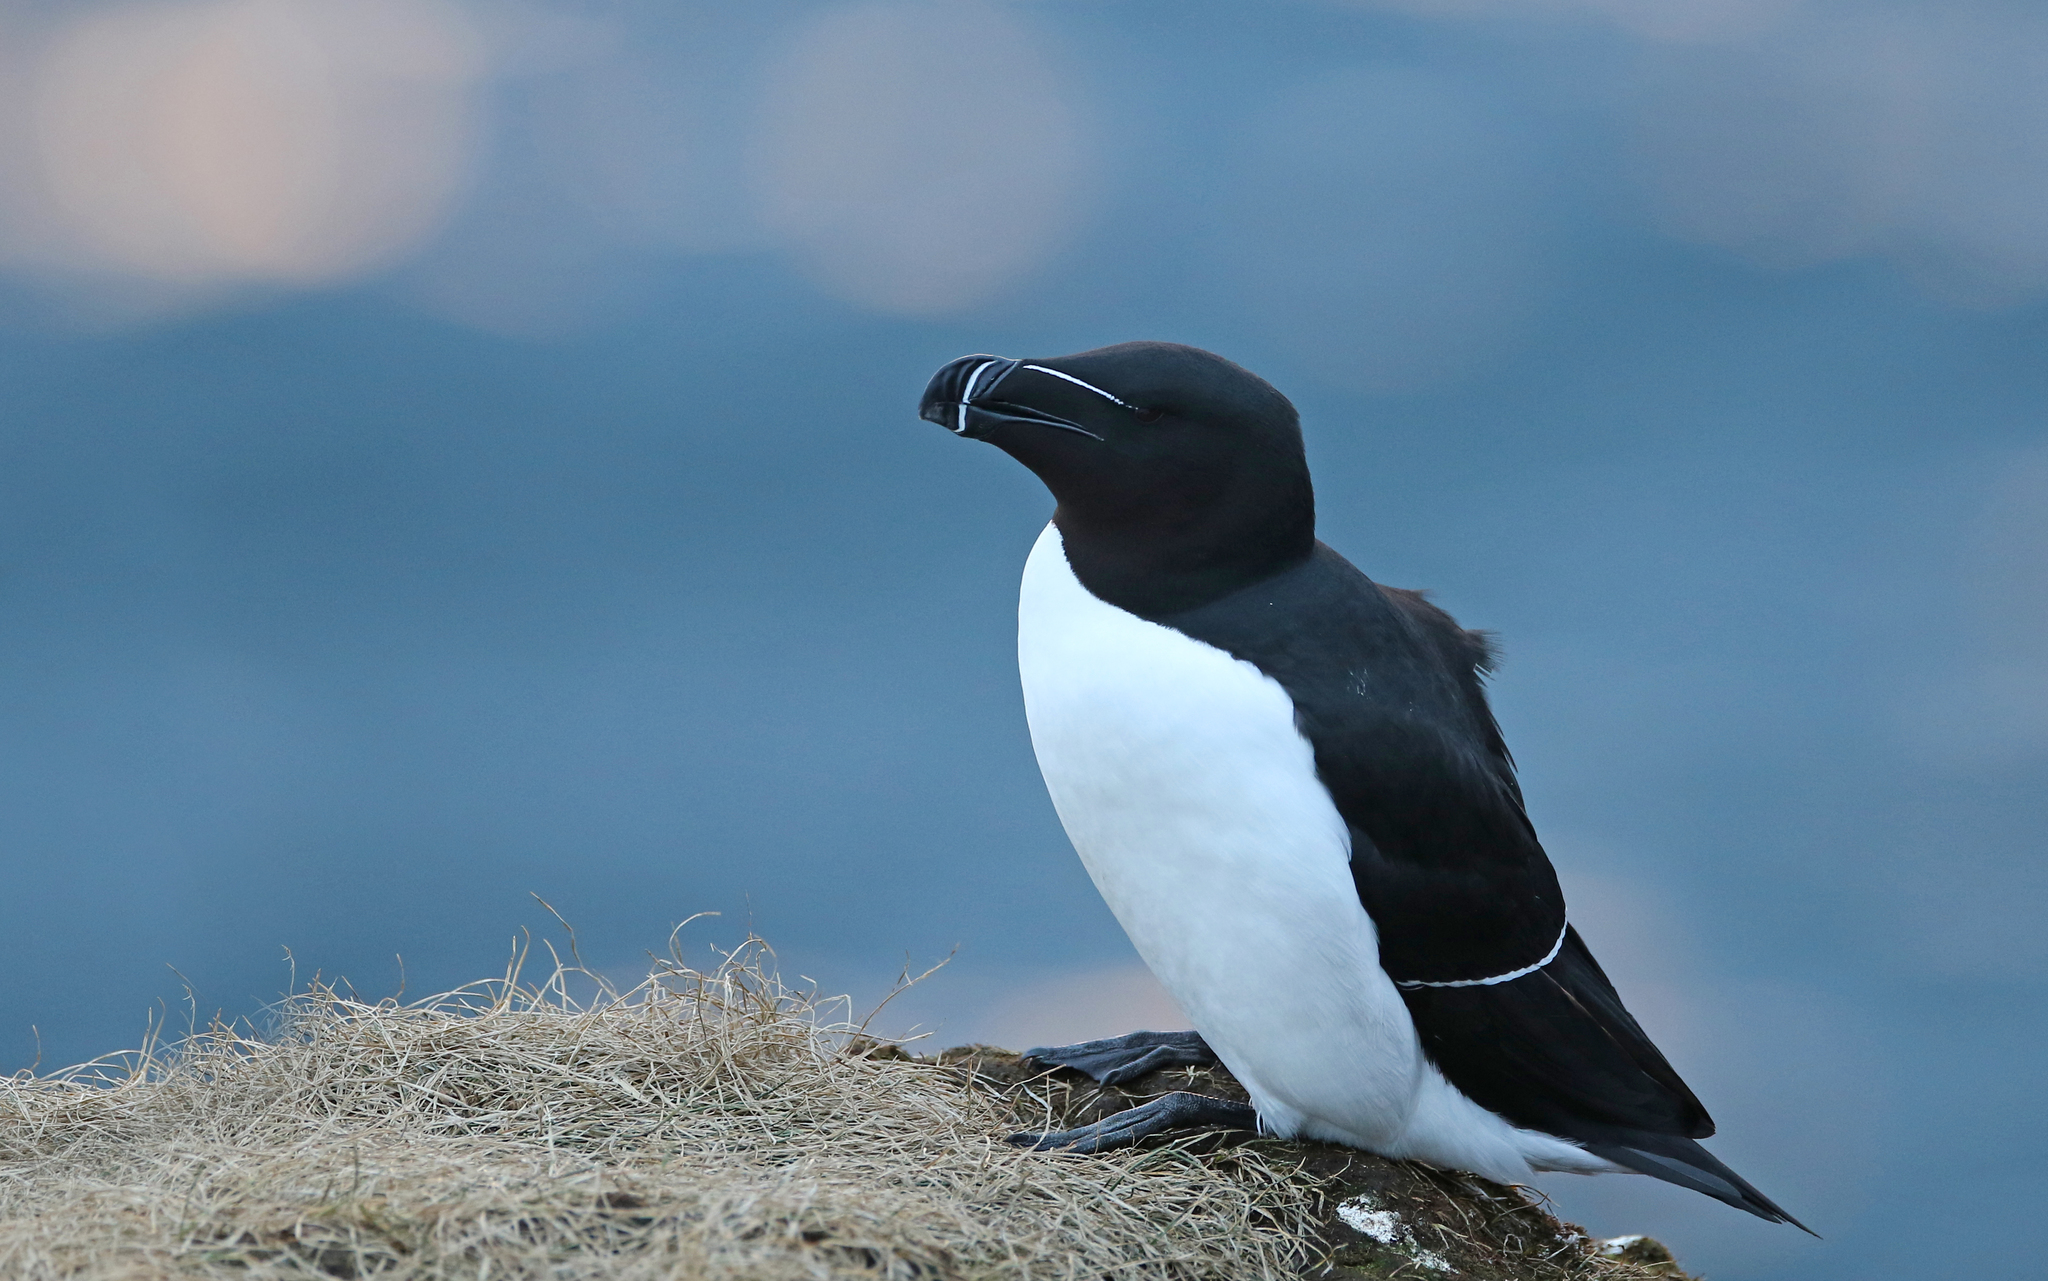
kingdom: Animalia
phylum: Chordata
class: Aves
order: Charadriiformes
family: Alcidae
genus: Alca
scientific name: Alca torda
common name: Razorbill
